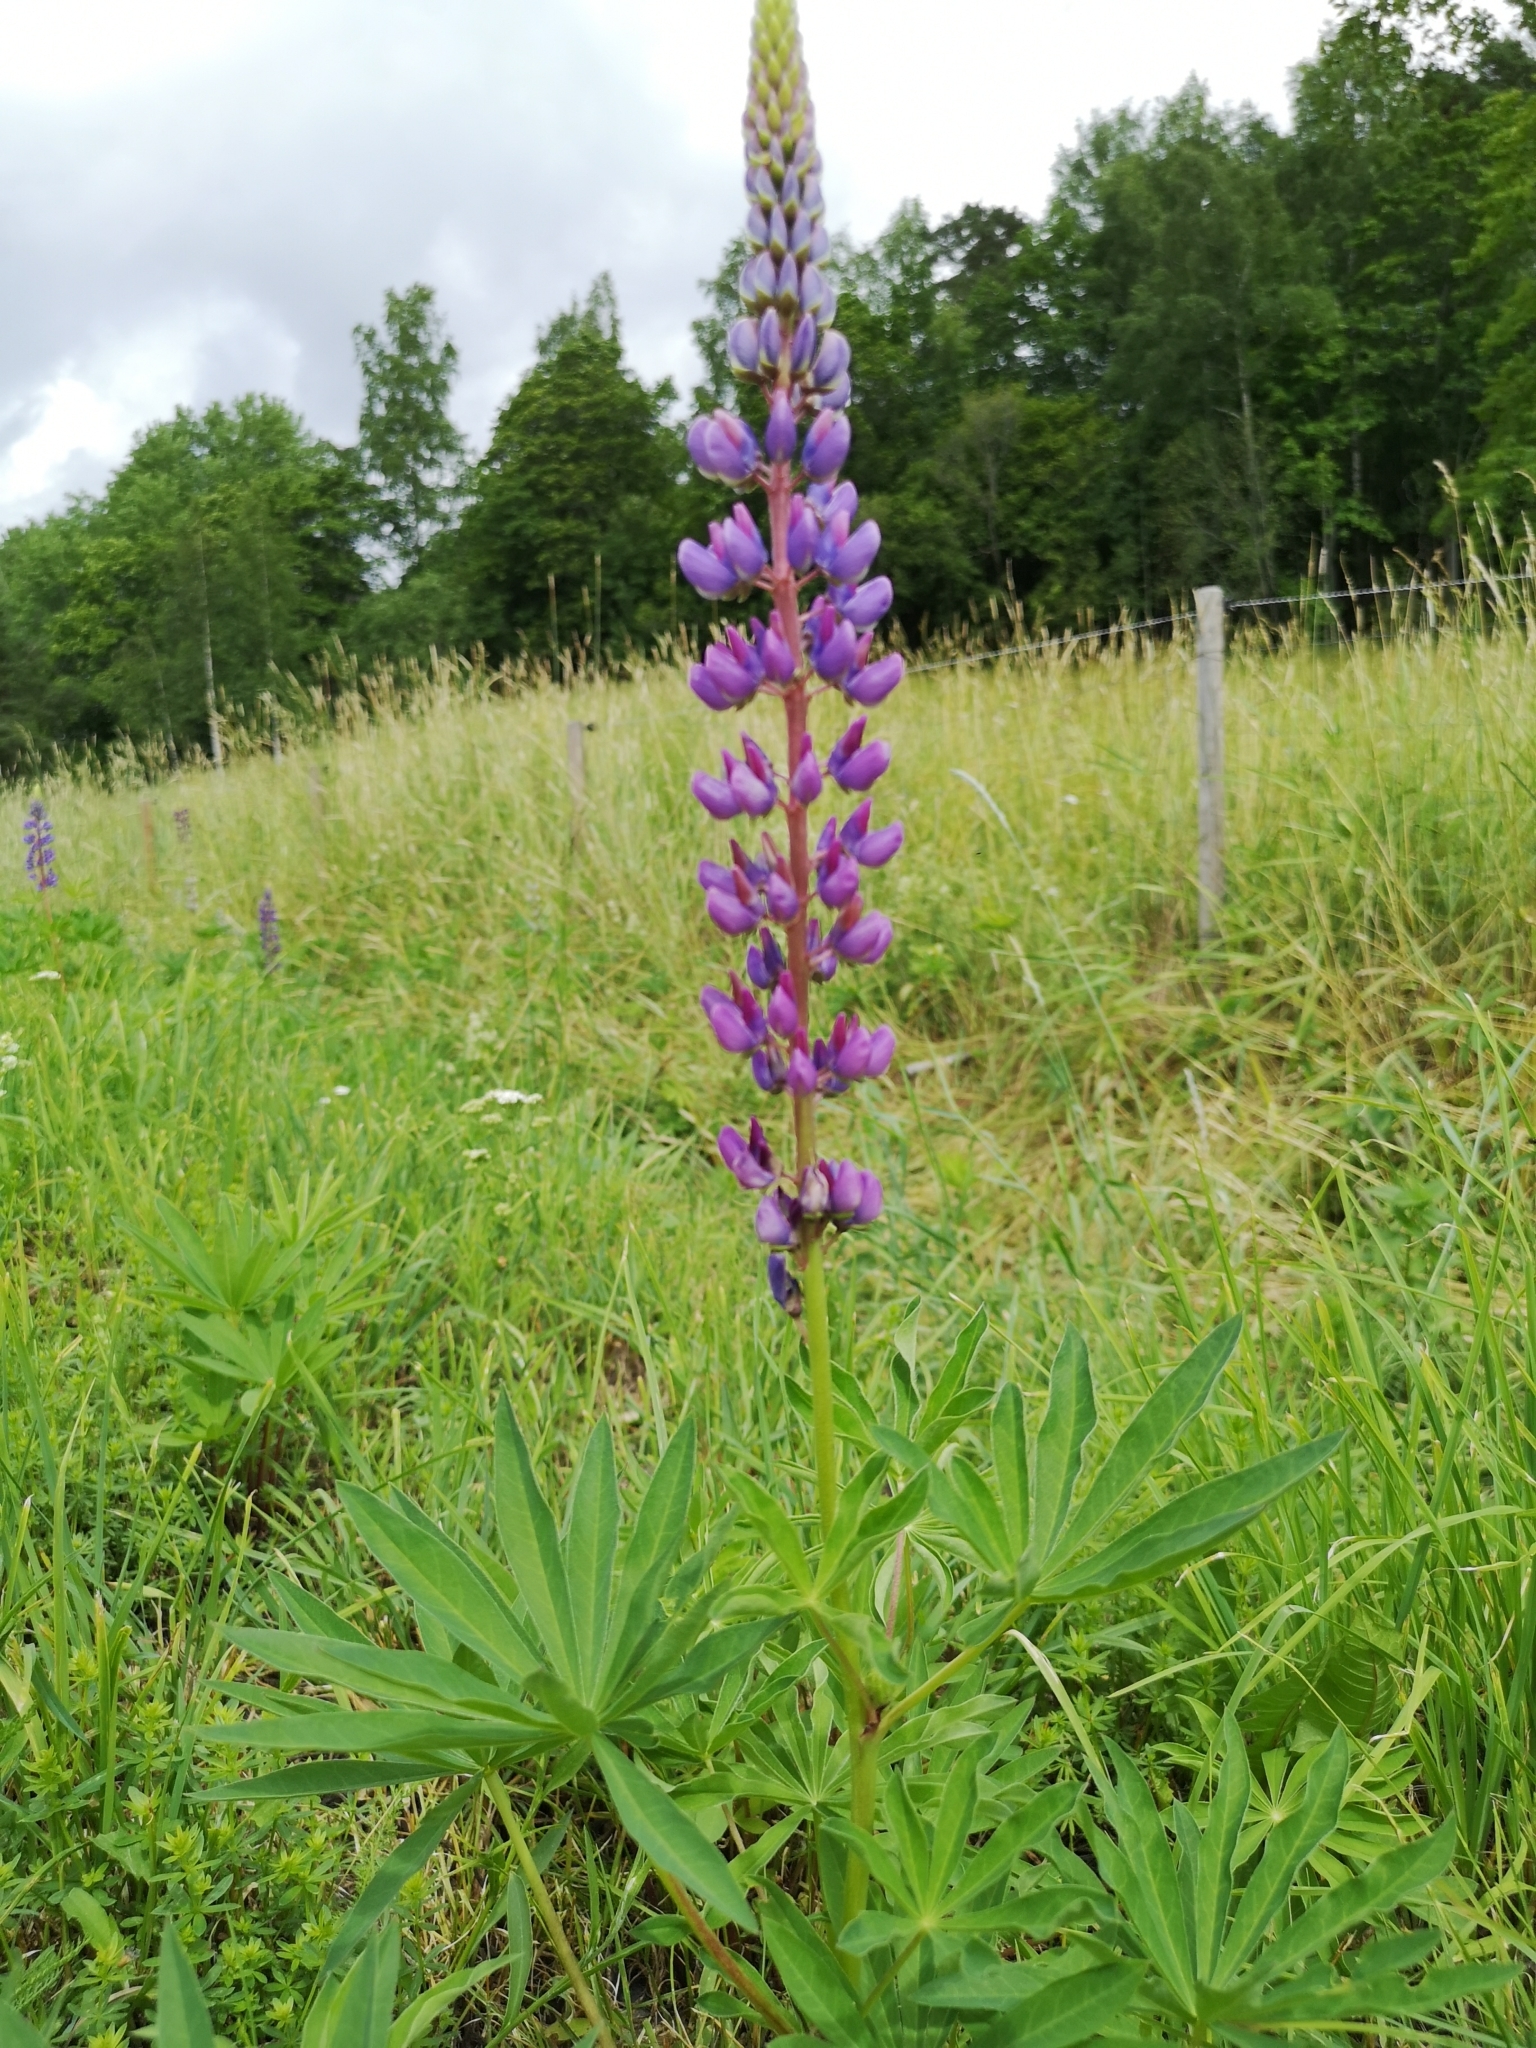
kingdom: Plantae
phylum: Tracheophyta
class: Magnoliopsida
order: Fabales
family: Fabaceae
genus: Lupinus
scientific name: Lupinus polyphyllus
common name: Garden lupin
